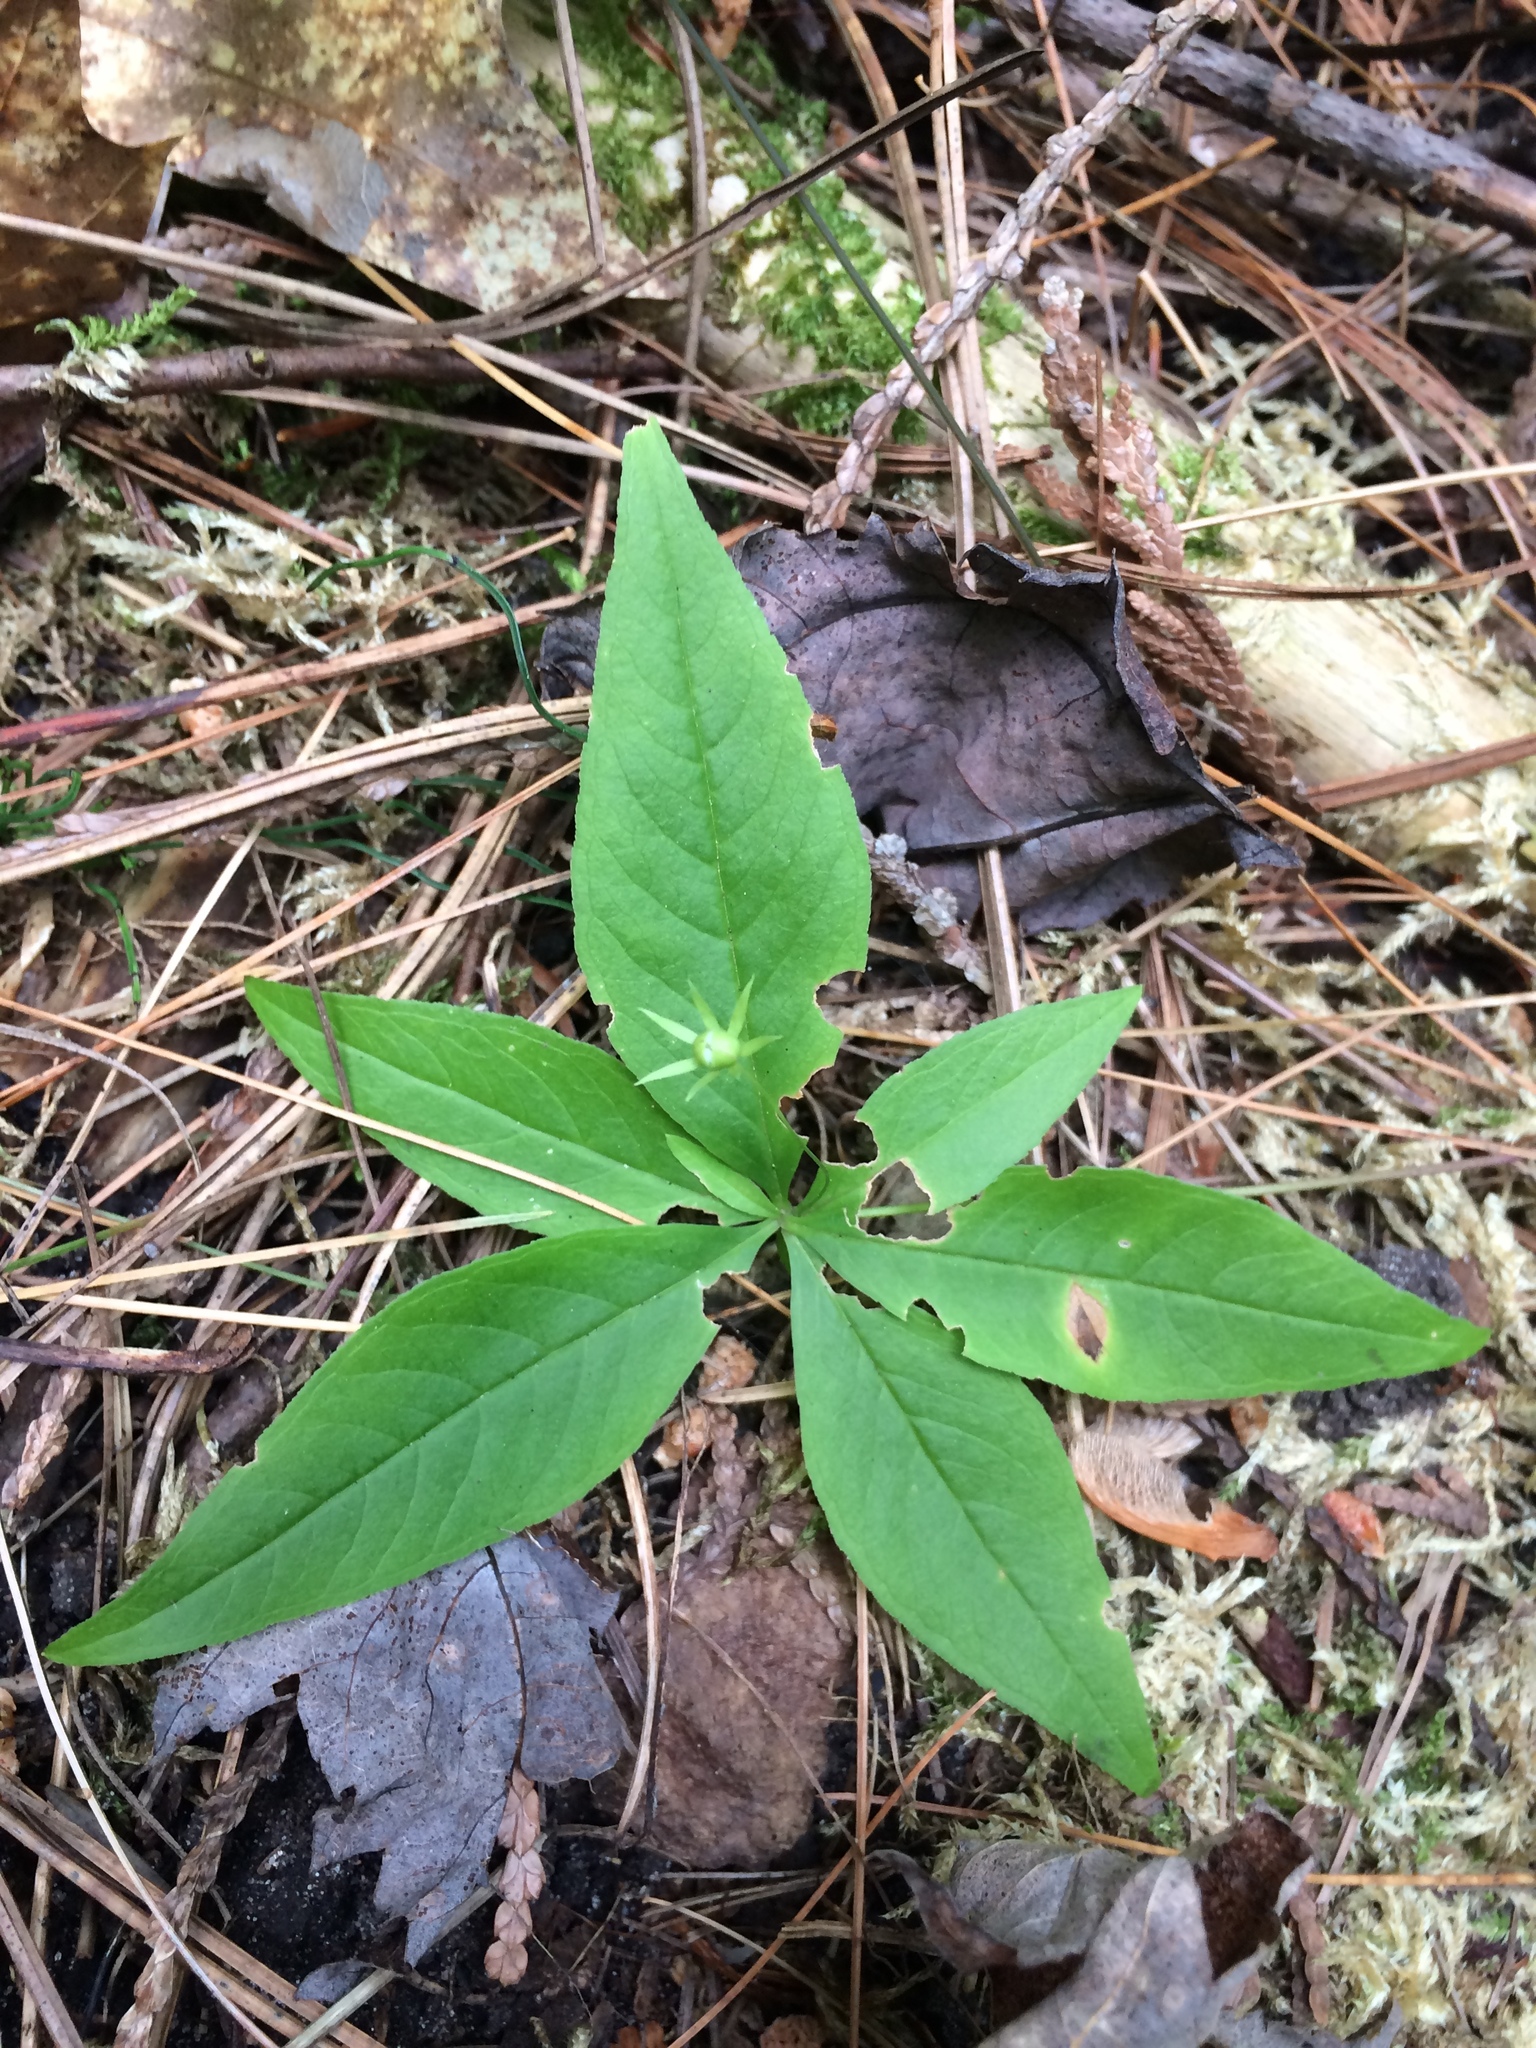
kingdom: Plantae
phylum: Tracheophyta
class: Magnoliopsida
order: Ericales
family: Primulaceae
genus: Lysimachia
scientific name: Lysimachia borealis
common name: American starflower
